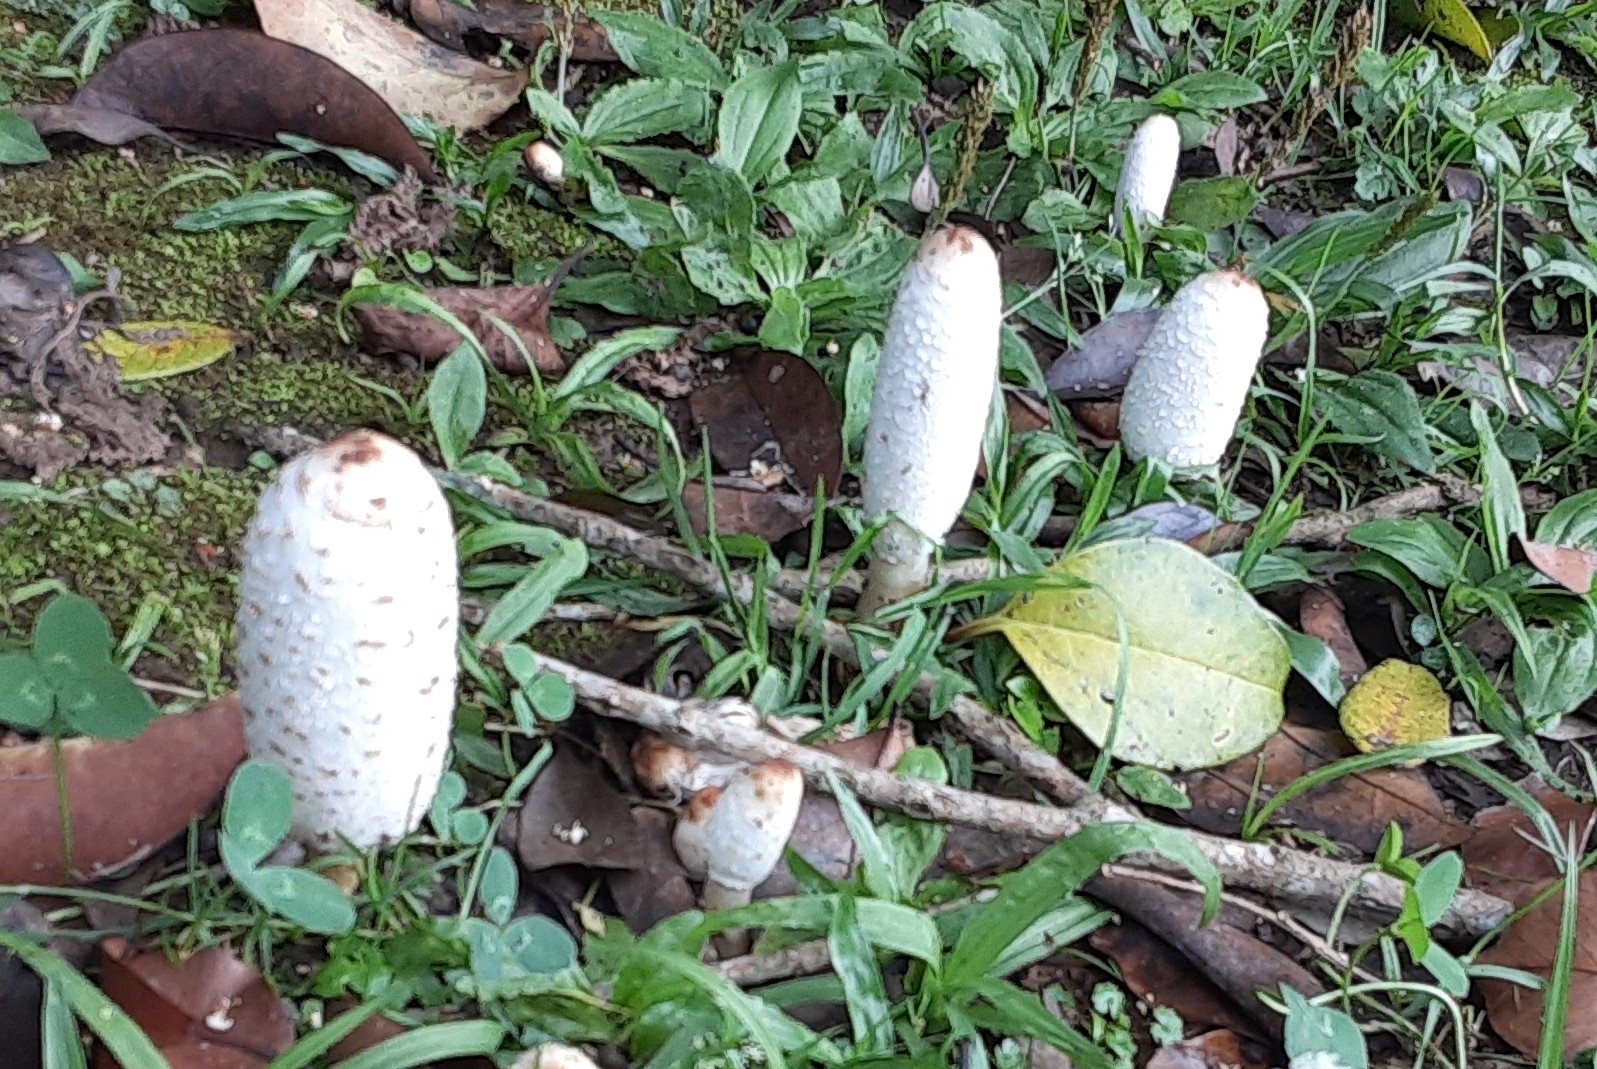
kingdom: Fungi
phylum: Basidiomycota
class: Agaricomycetes
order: Agaricales
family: Agaricaceae
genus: Coprinus
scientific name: Coprinus comatus
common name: Lawyer's wig
